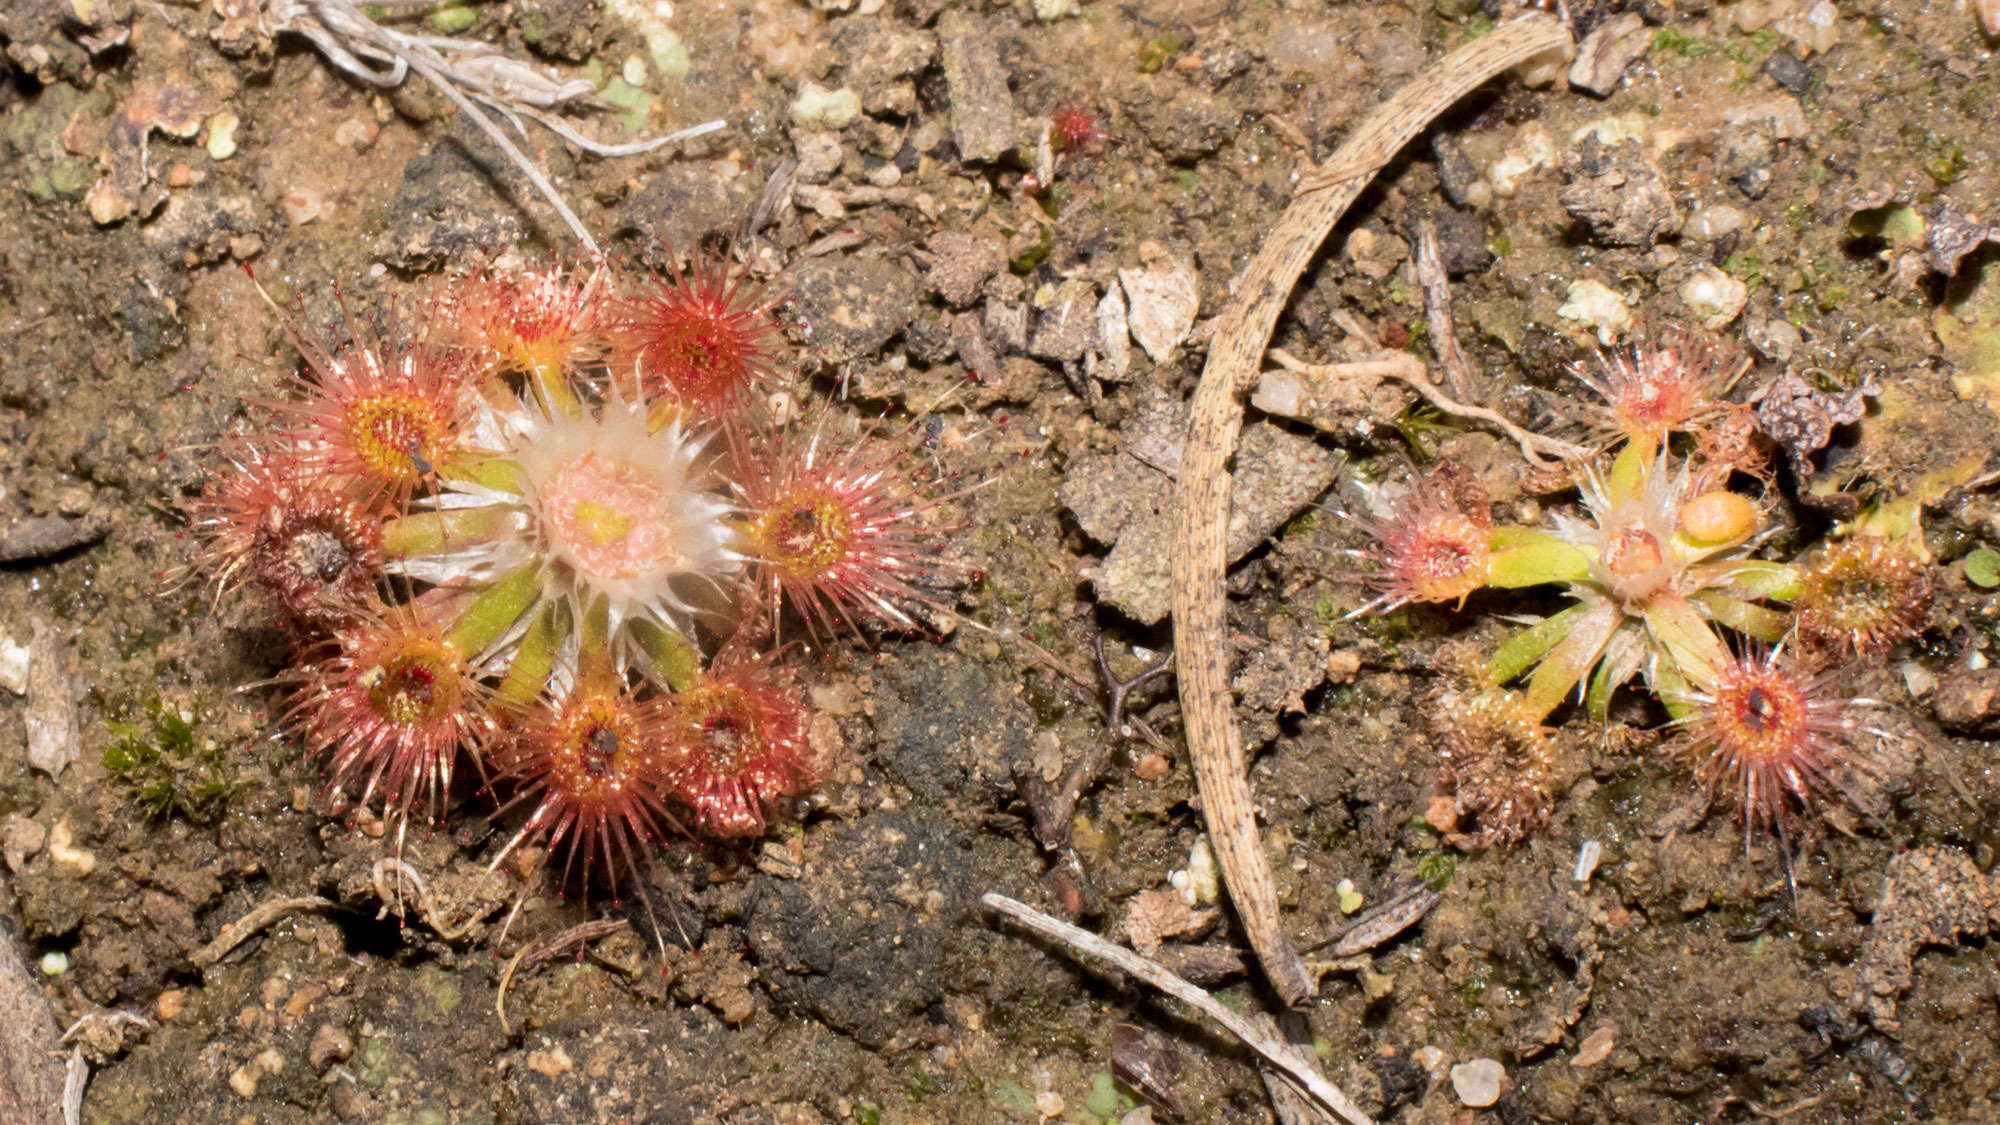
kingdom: Plantae
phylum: Tracheophyta
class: Magnoliopsida
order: Caryophyllales
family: Droseraceae
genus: Drosera
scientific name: Drosera androsacea
